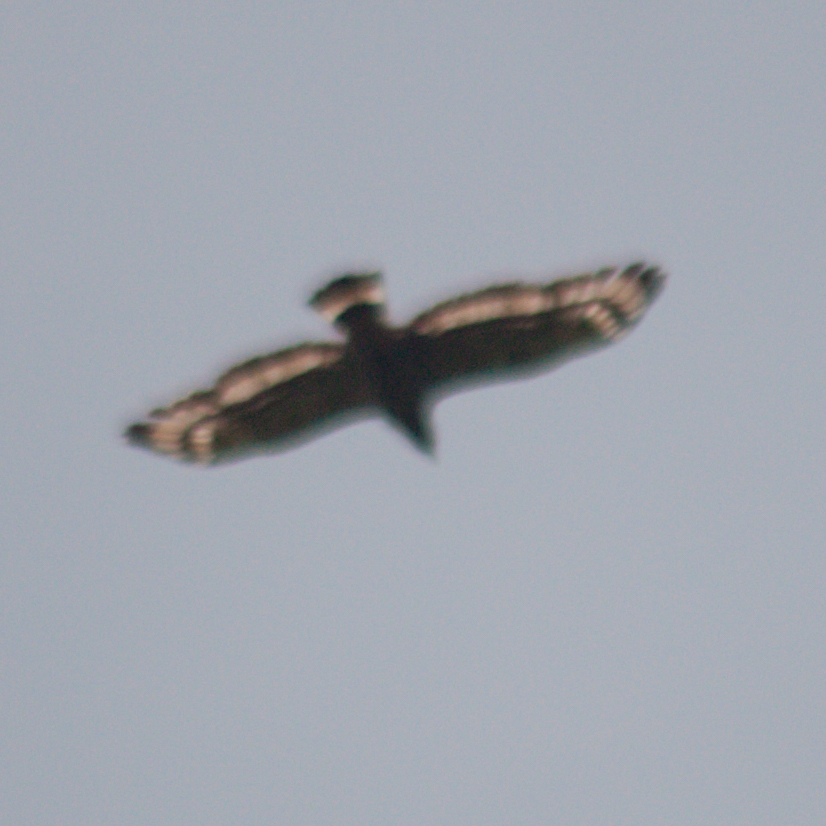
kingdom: Animalia
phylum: Chordata
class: Aves
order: Accipitriformes
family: Accipitridae
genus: Spilornis
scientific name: Spilornis cheela
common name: Crested serpent eagle
